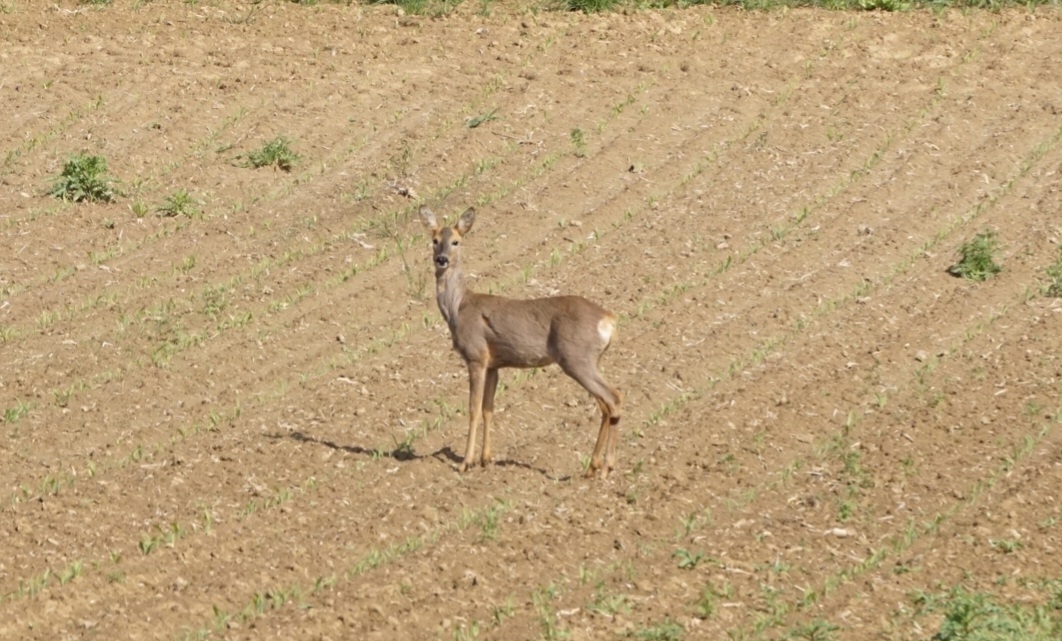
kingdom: Animalia
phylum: Chordata
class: Mammalia
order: Artiodactyla
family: Cervidae
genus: Capreolus
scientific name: Capreolus capreolus
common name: Western roe deer
